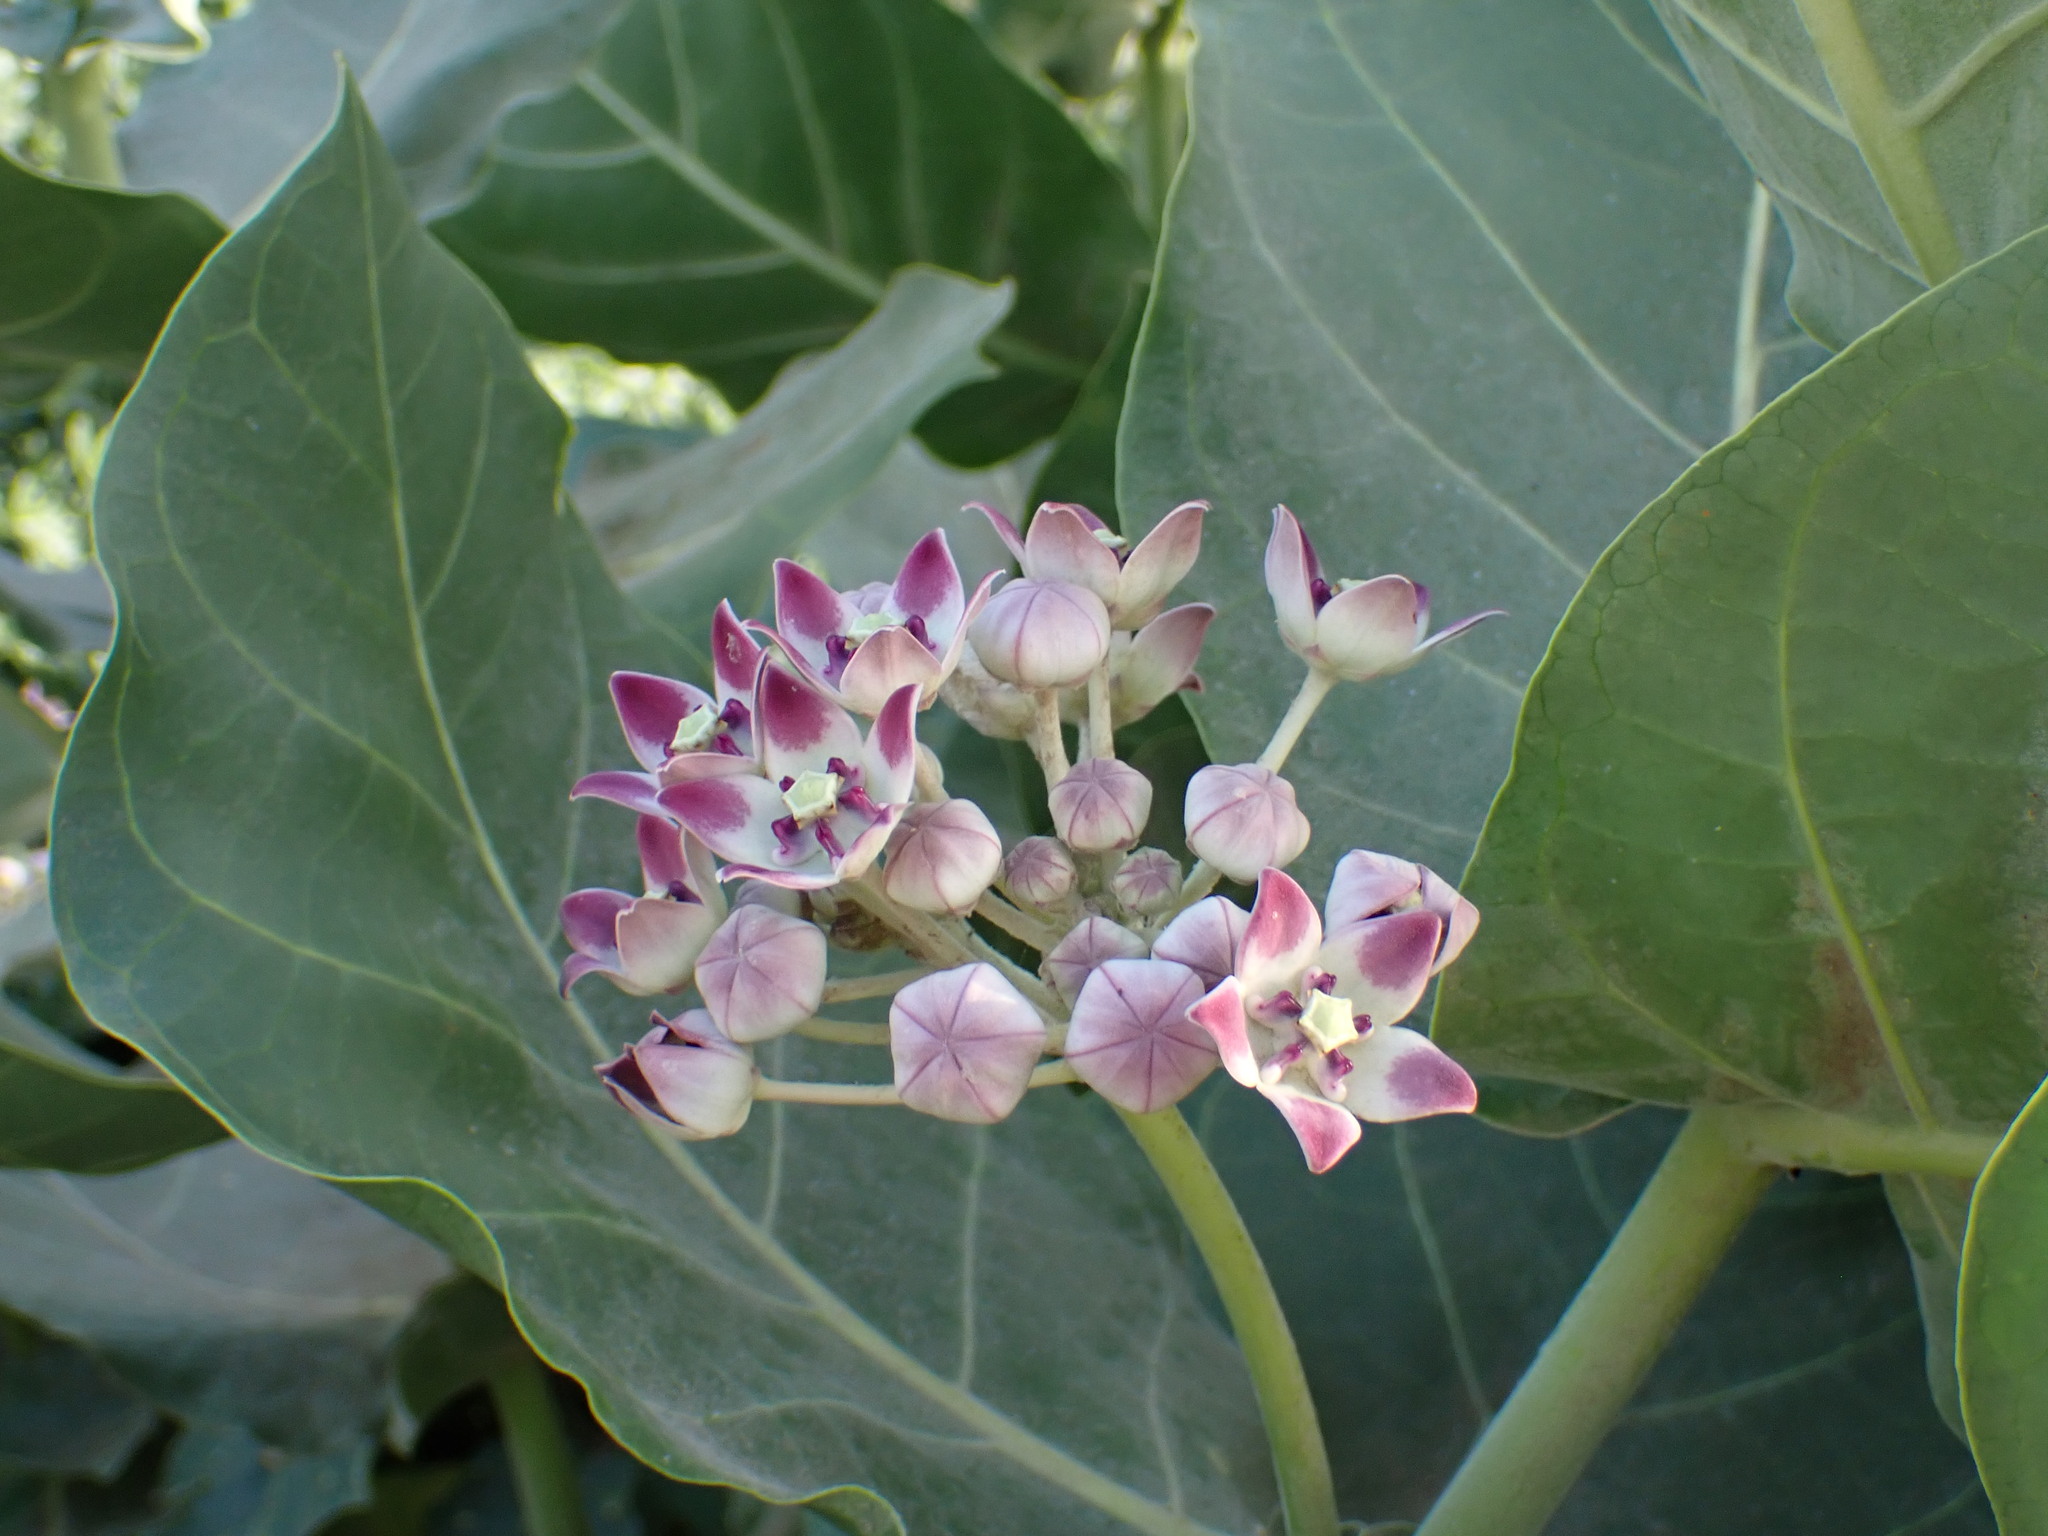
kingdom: Plantae
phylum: Tracheophyta
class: Magnoliopsida
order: Gentianales
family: Apocynaceae
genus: Calotropis
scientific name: Calotropis procera
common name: Roostertree
